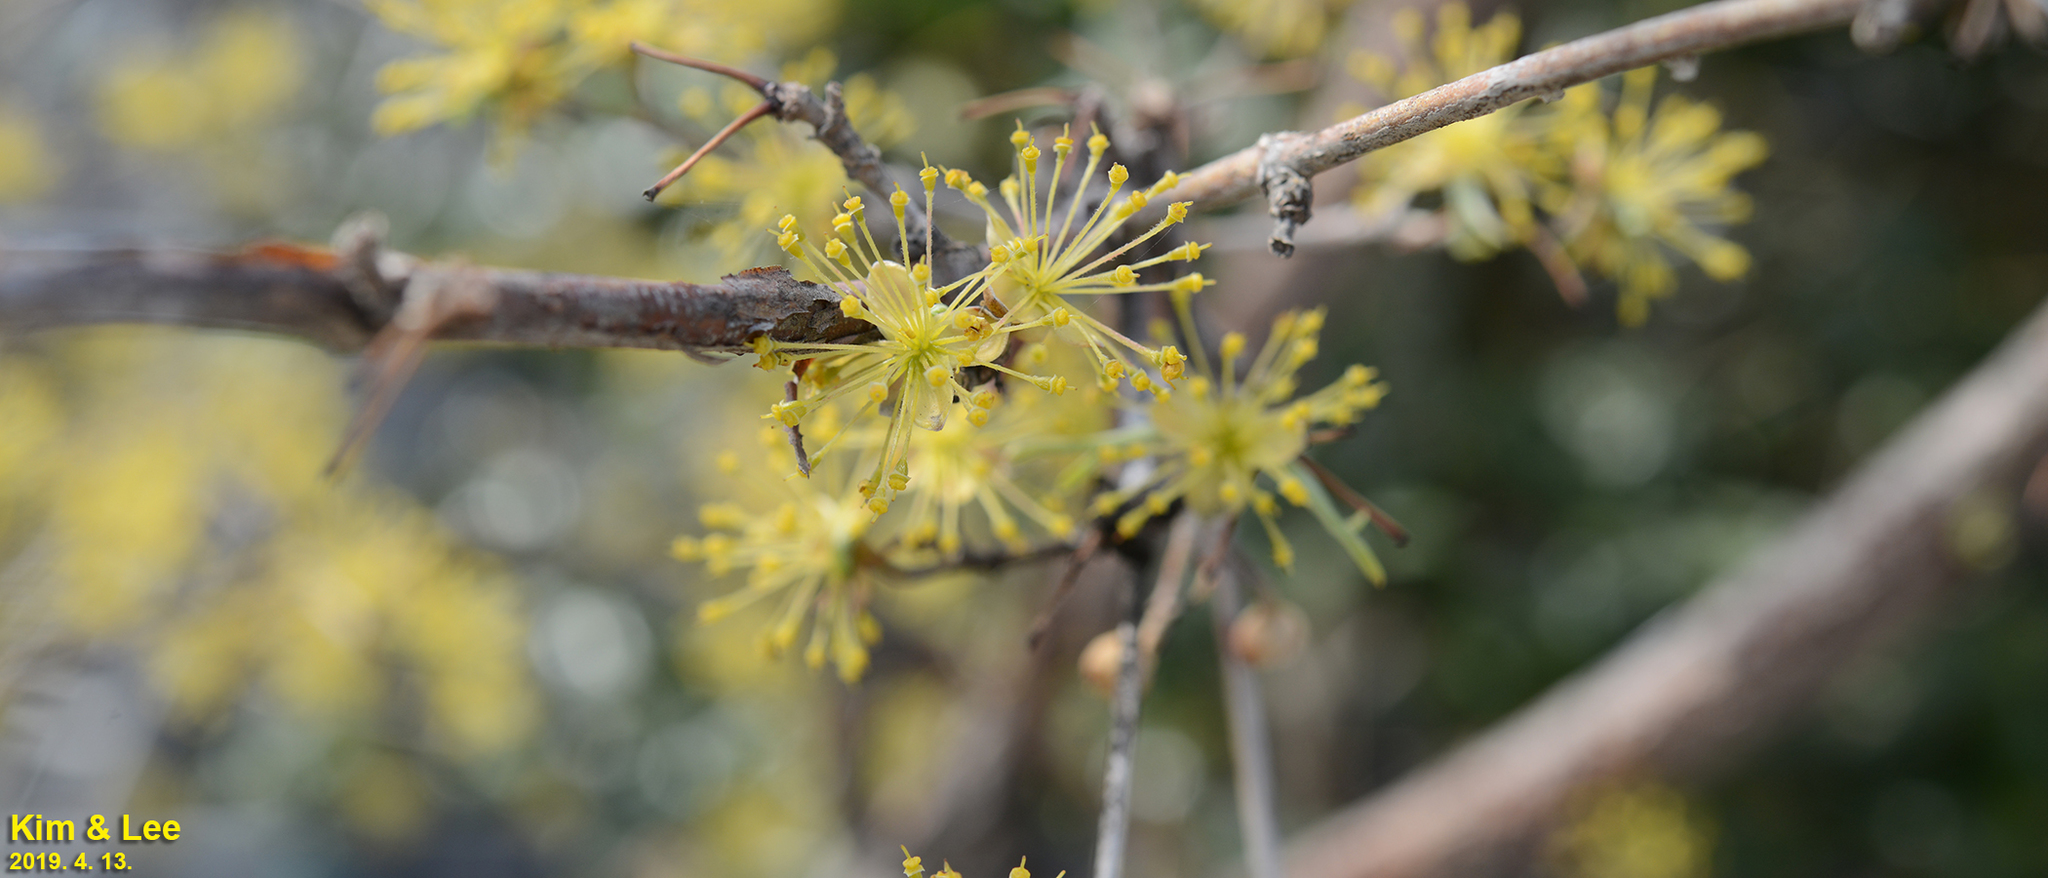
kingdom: Plantae
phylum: Tracheophyta
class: Magnoliopsida
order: Cornales
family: Cornaceae
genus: Cornus
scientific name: Cornus officinalis
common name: Asiatic dogwood
